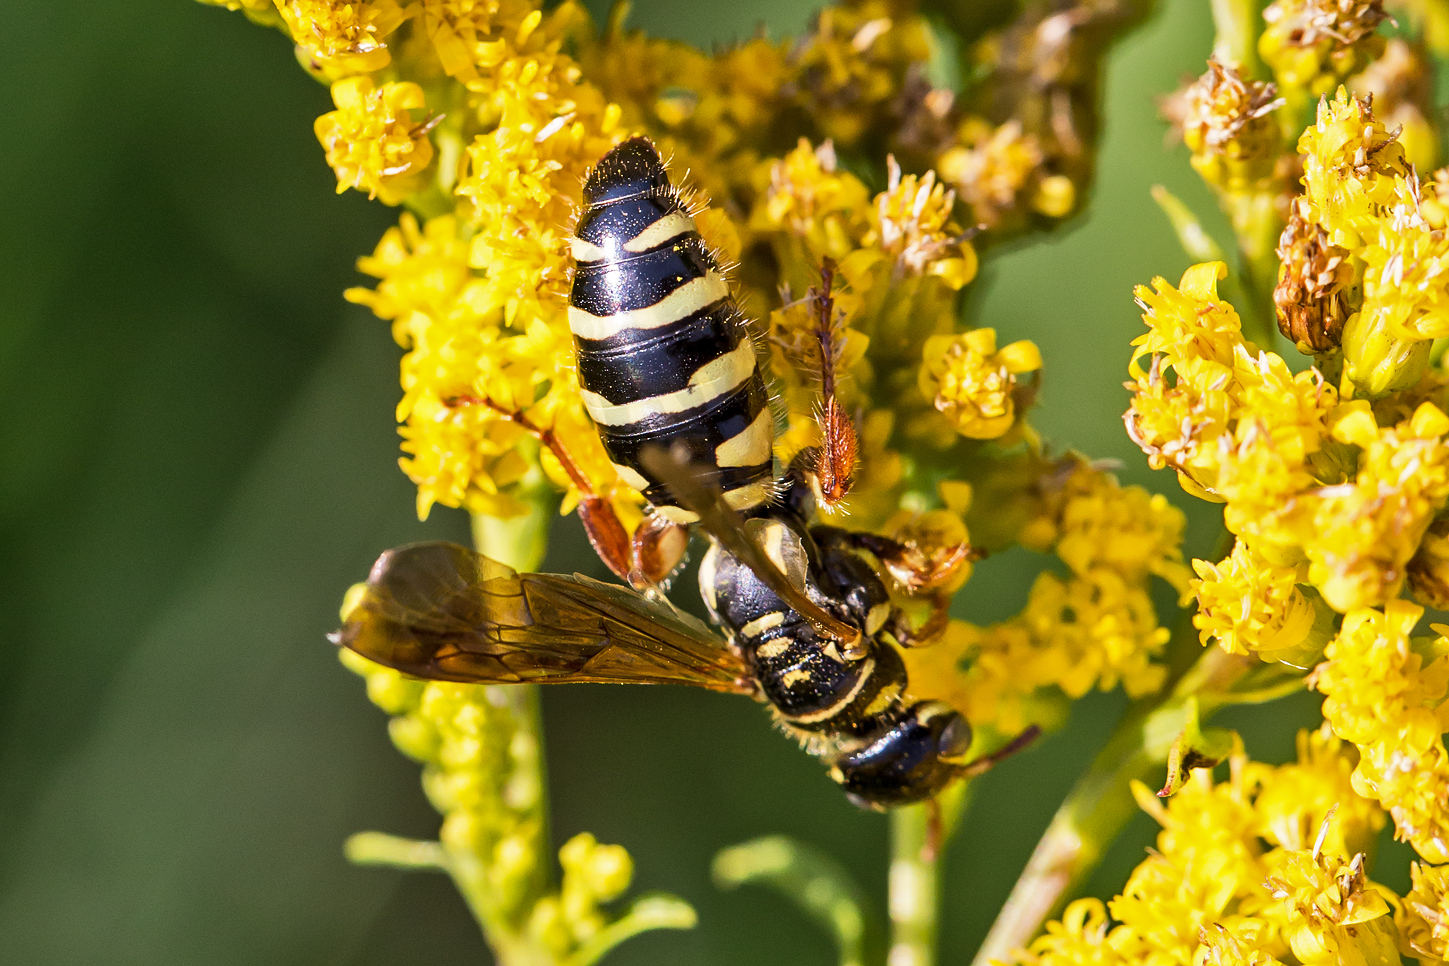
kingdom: Animalia
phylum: Arthropoda
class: Insecta
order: Hymenoptera
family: Tiphiidae
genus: Myzinum
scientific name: Myzinum quinquecinctum
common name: Five-banded thynnid wasp
